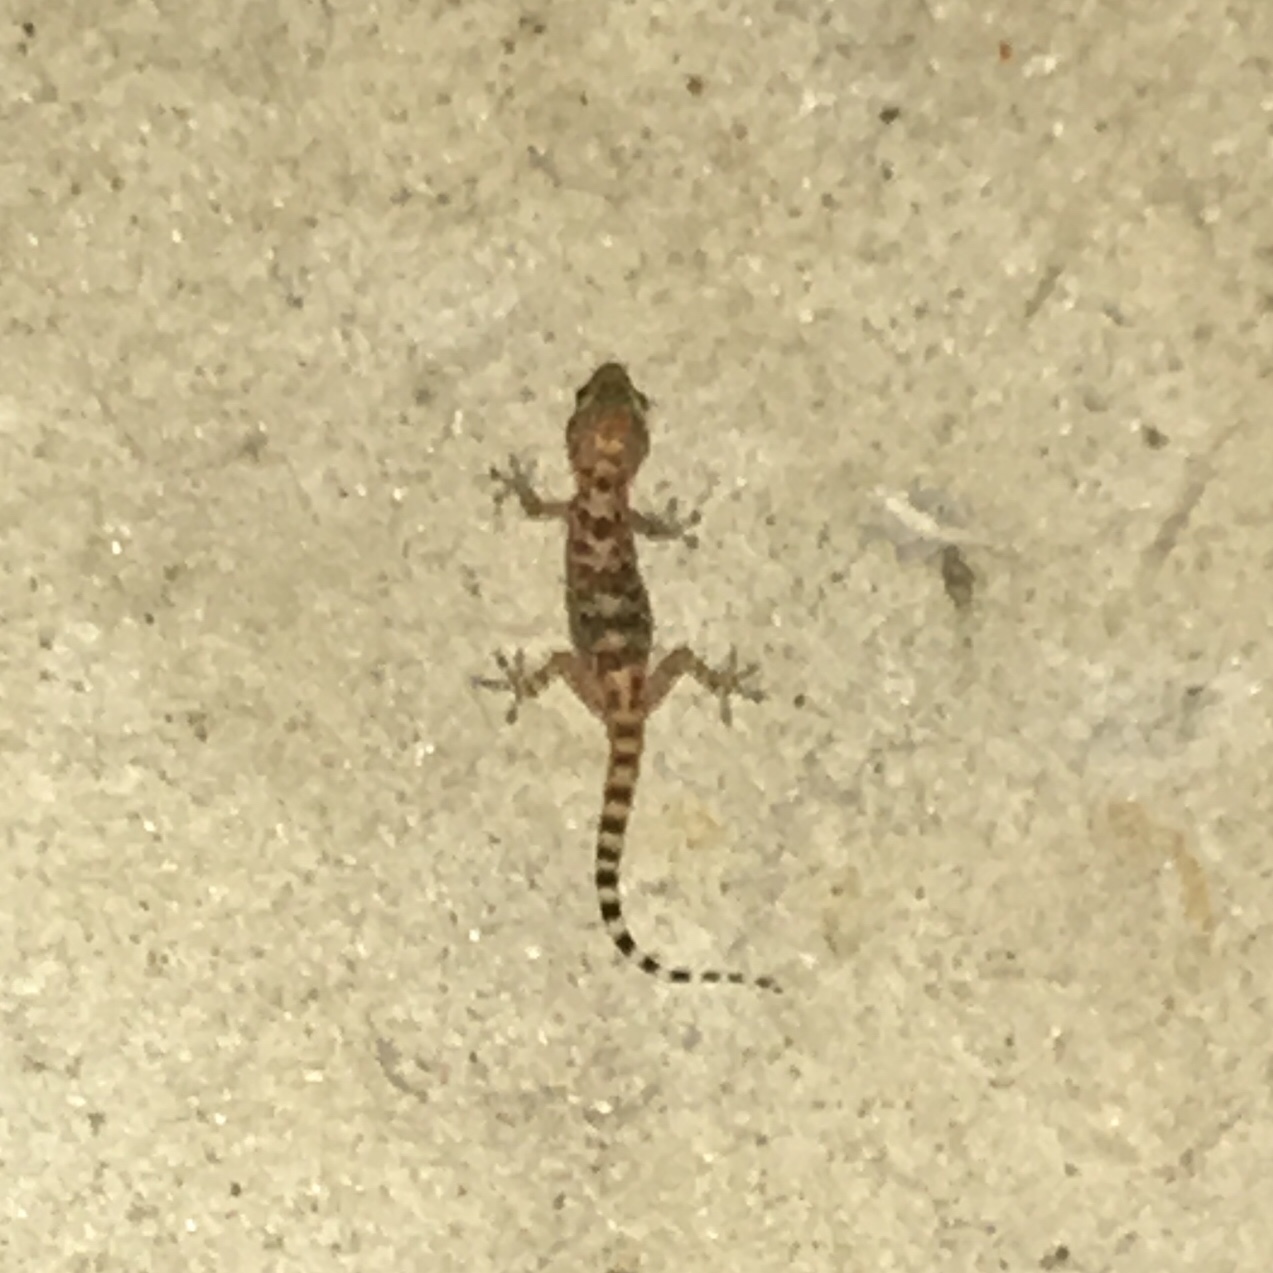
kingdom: Animalia
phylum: Chordata
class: Squamata
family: Gekkonidae
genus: Hemidactylus
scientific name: Hemidactylus turcicus
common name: Turkish gecko
